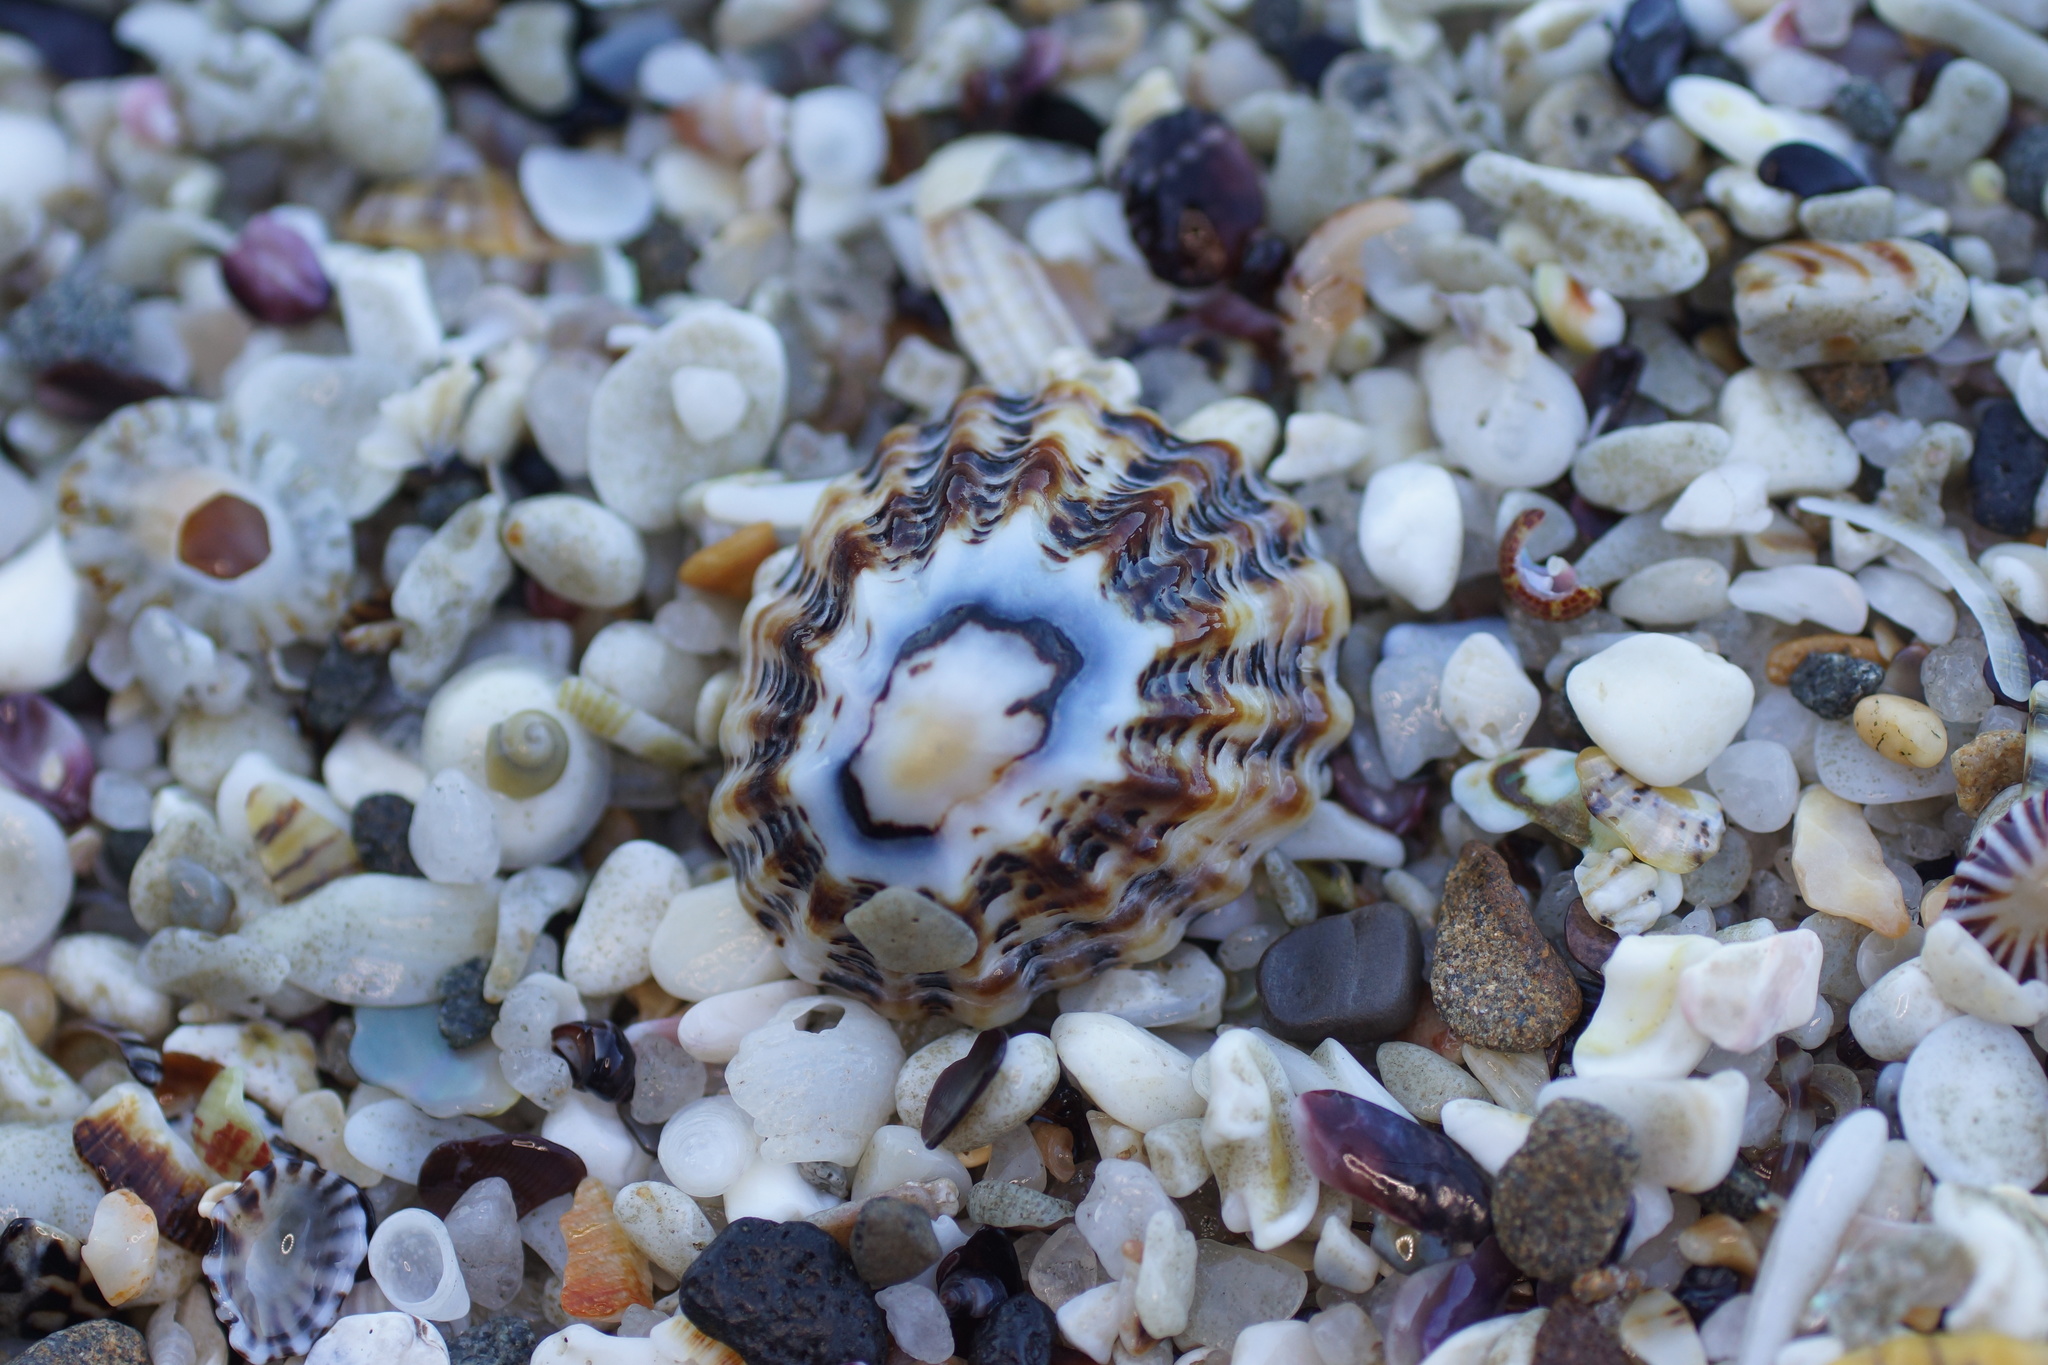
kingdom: Animalia
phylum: Mollusca
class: Gastropoda
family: Lottiidae
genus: Patelloida
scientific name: Patelloida alticostata
